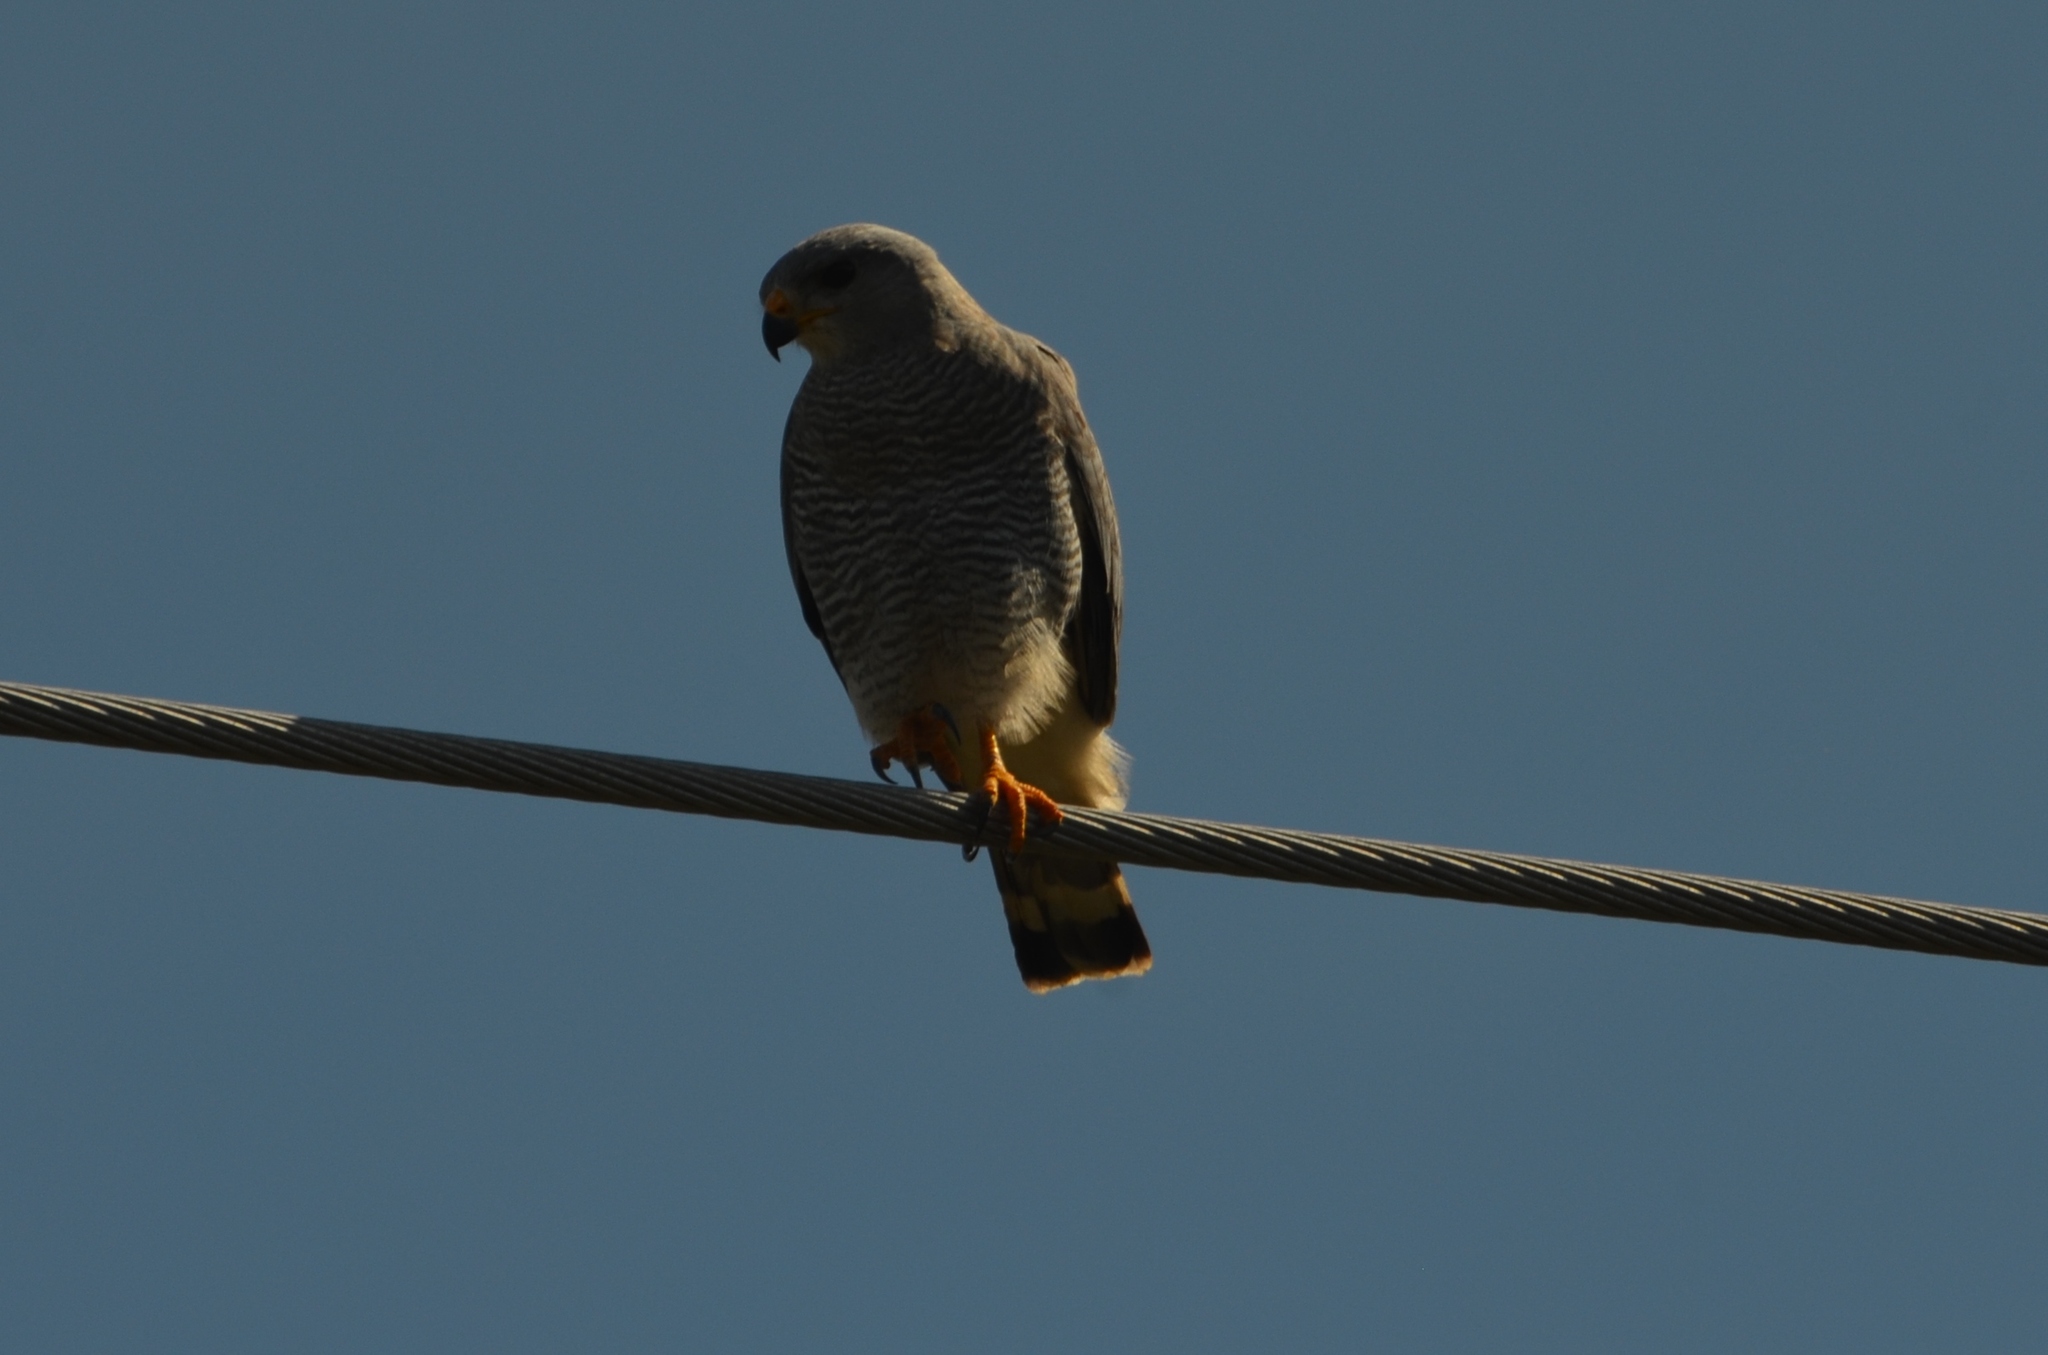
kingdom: Animalia
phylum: Chordata
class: Aves
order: Accipitriformes
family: Accipitridae
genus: Buteo
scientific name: Buteo nitidus
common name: Grey-lined hawk
